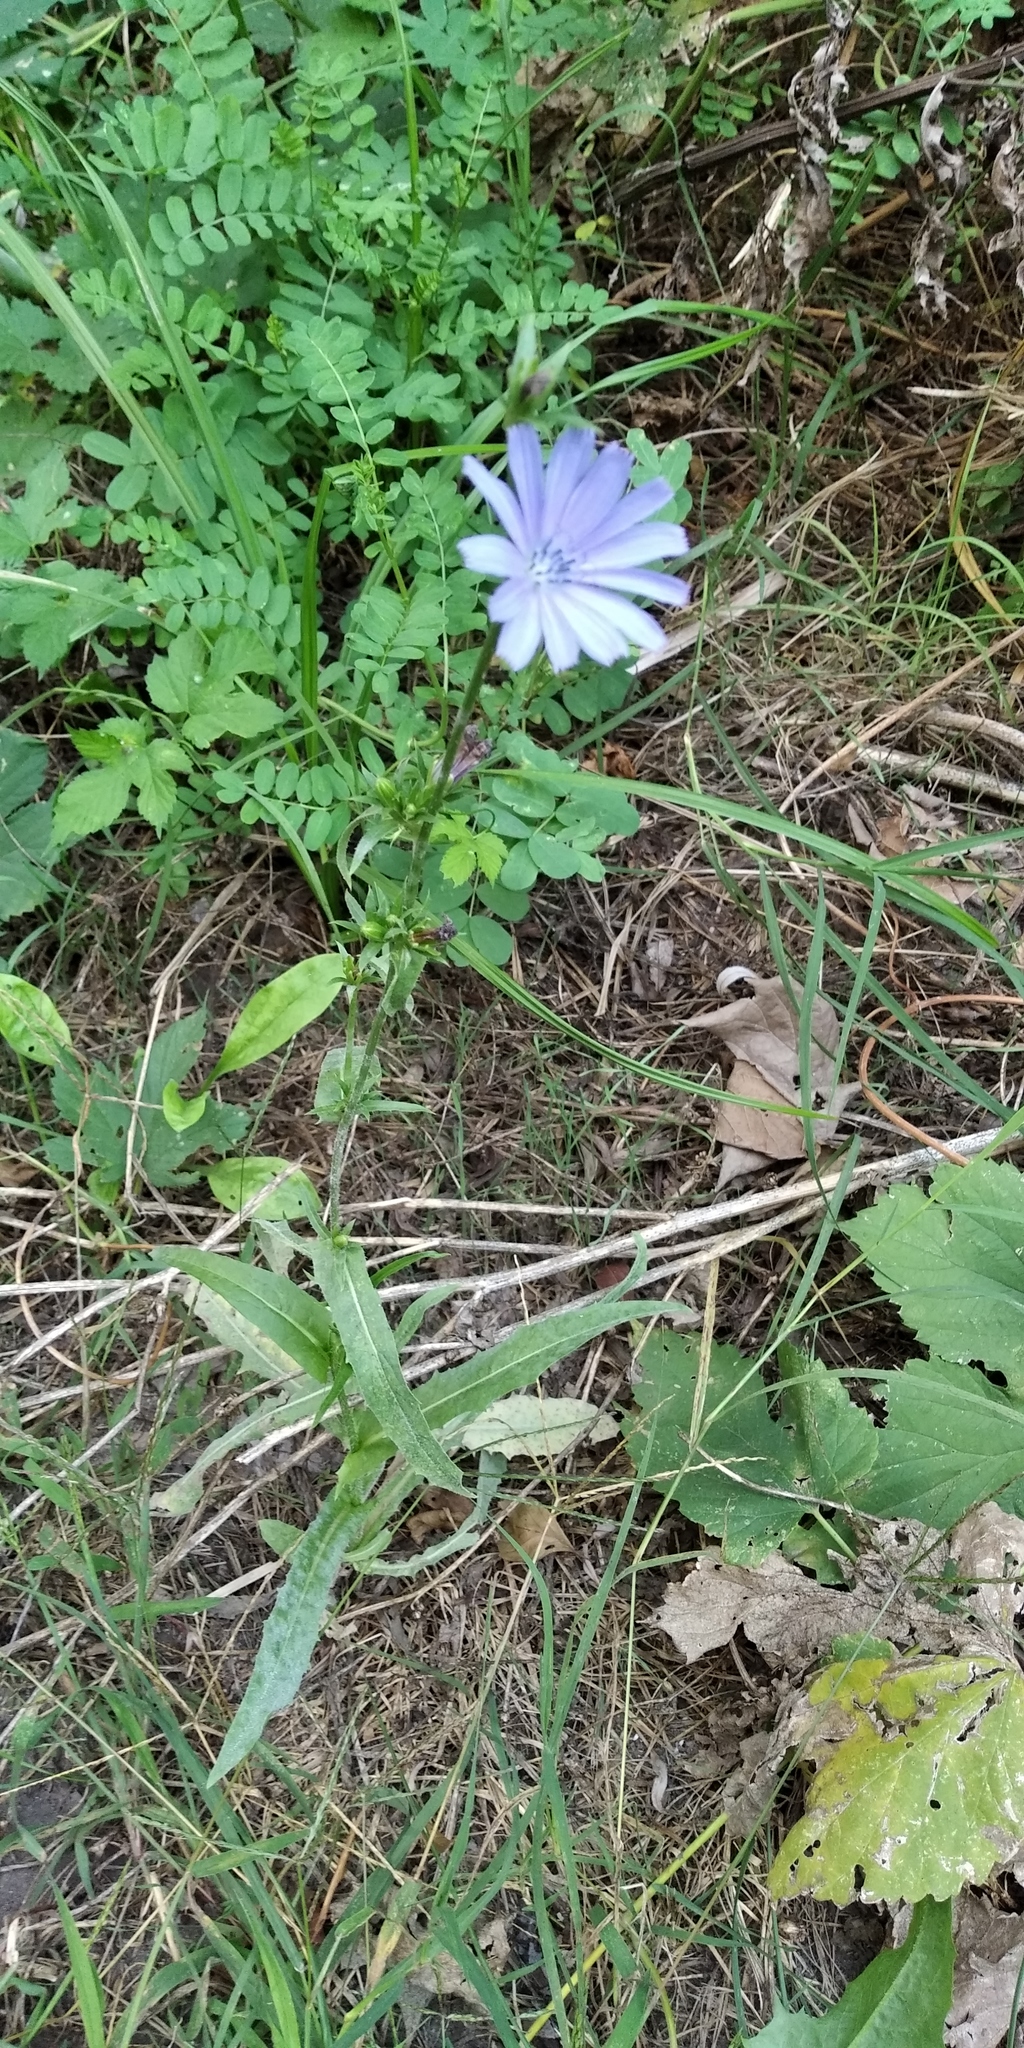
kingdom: Plantae
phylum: Tracheophyta
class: Magnoliopsida
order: Asterales
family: Asteraceae
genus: Cichorium
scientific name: Cichorium intybus
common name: Chicory
